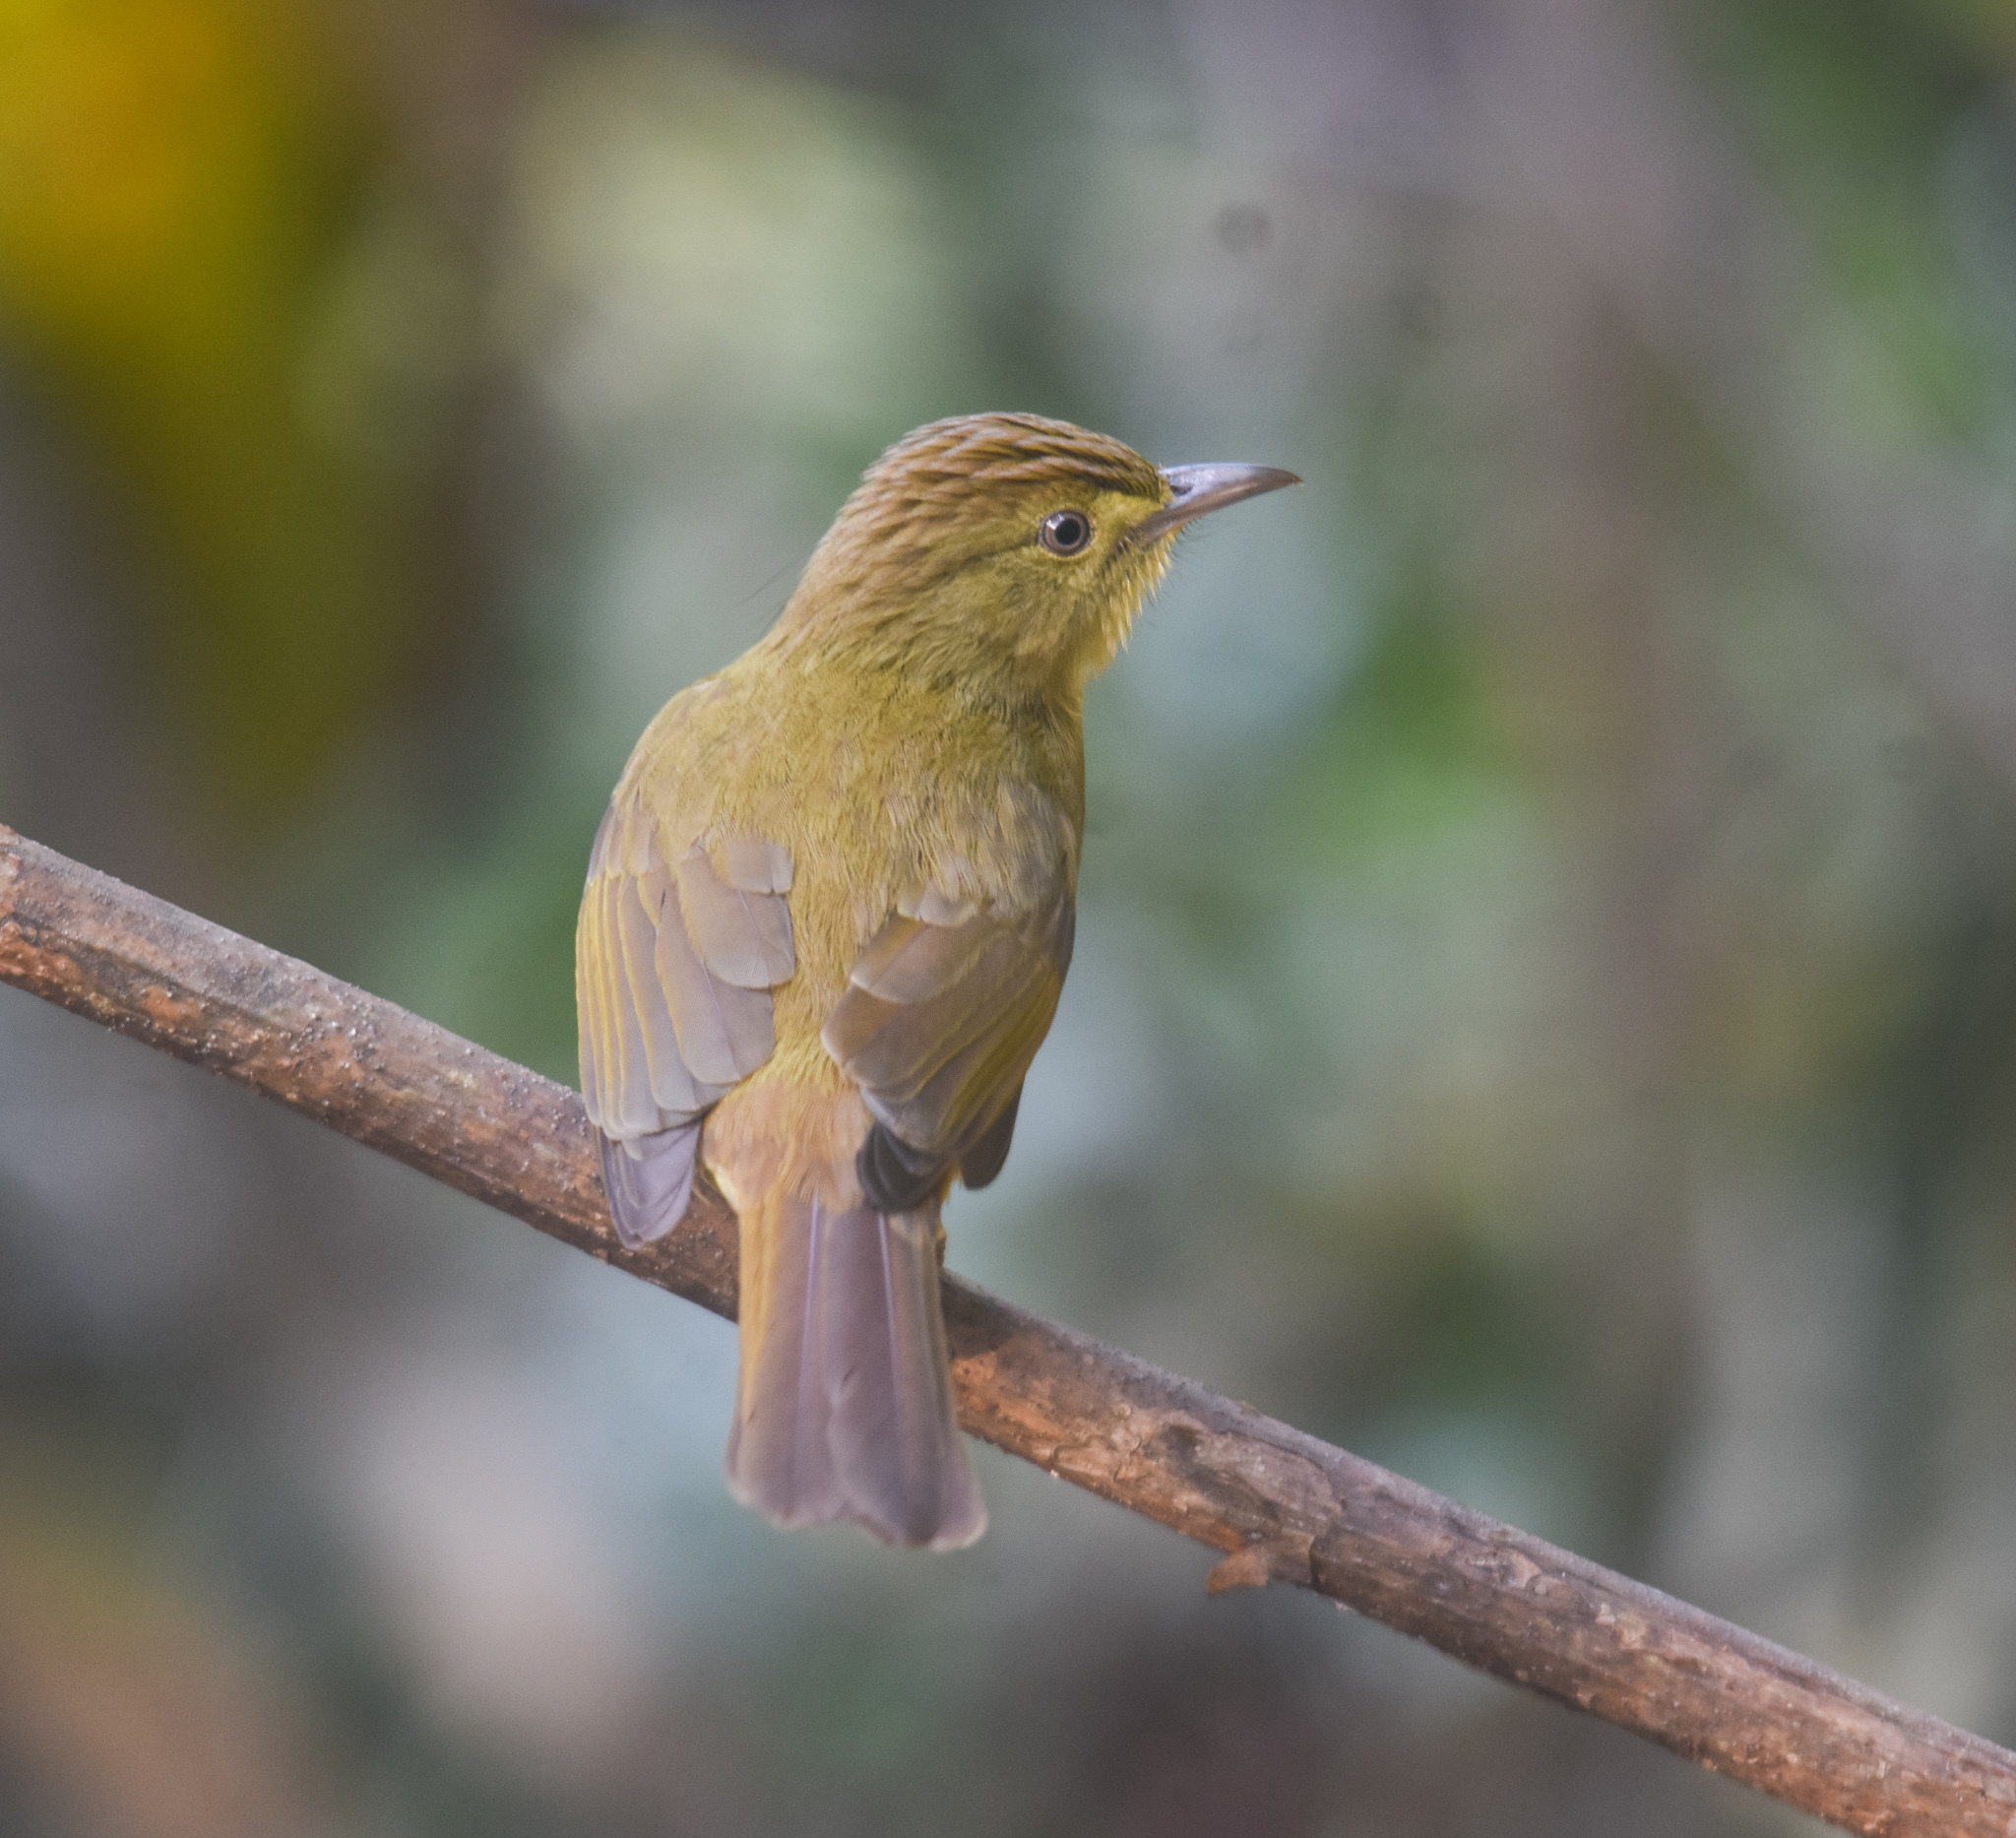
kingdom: Animalia
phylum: Chordata
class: Aves
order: Passeriformes
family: Pycnonotidae
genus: Iole
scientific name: Iole virescens
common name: Olive bulbul
